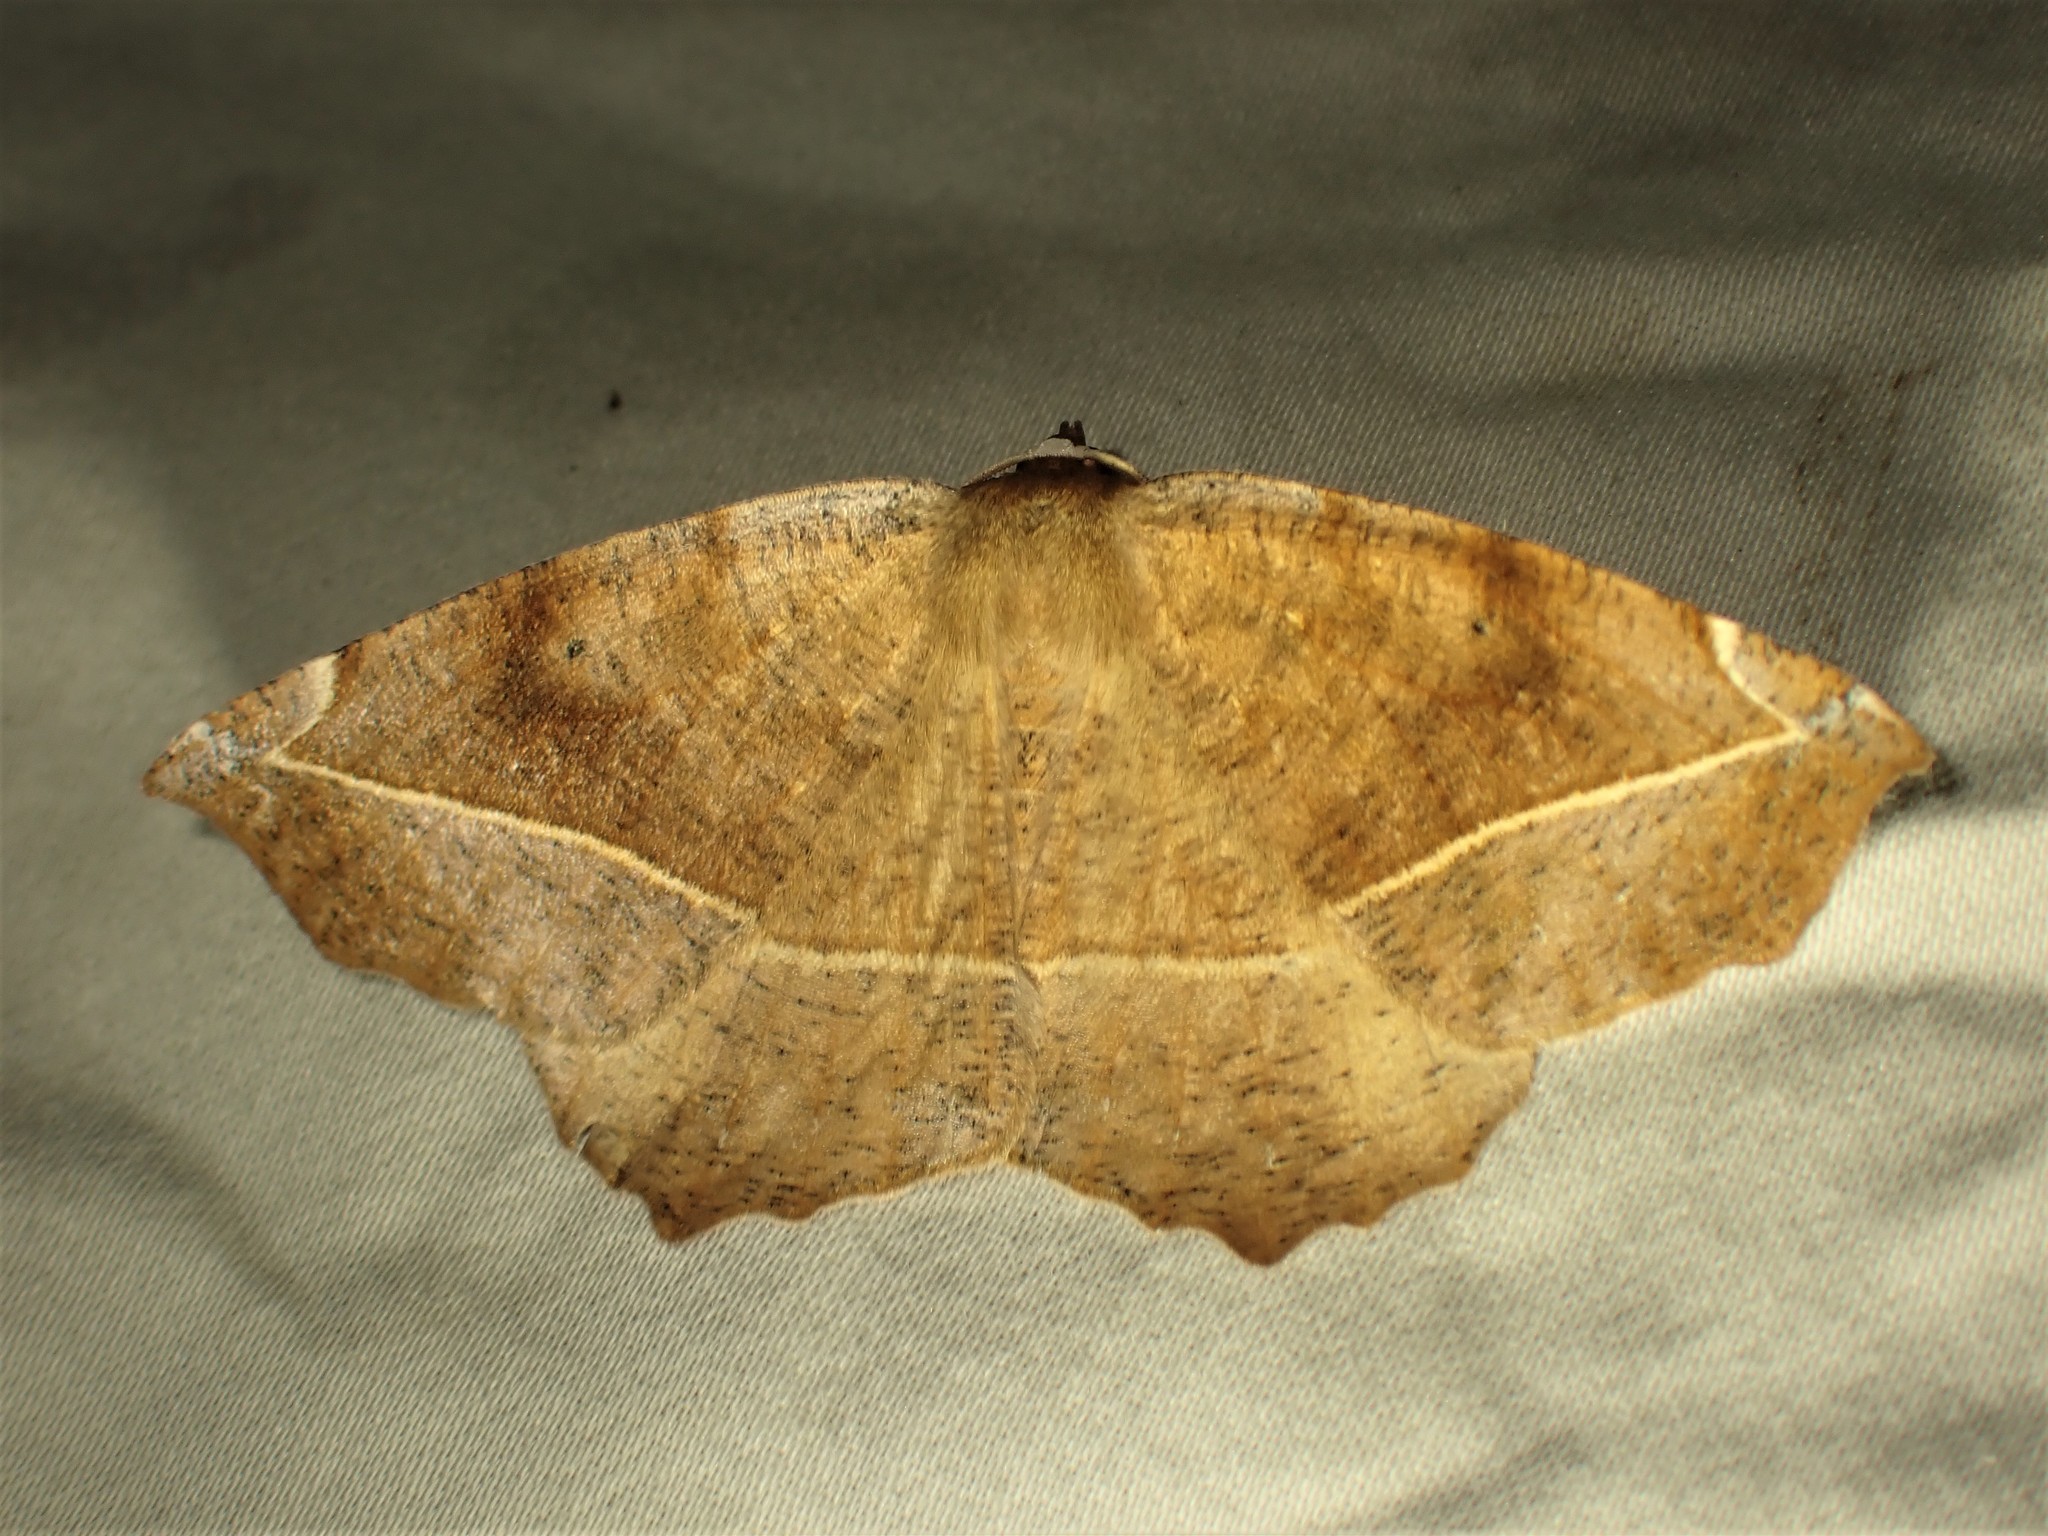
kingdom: Animalia
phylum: Arthropoda
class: Insecta
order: Lepidoptera
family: Geometridae
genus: Eutrapela
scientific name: Eutrapela clemataria
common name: Curved-toothed geometer
